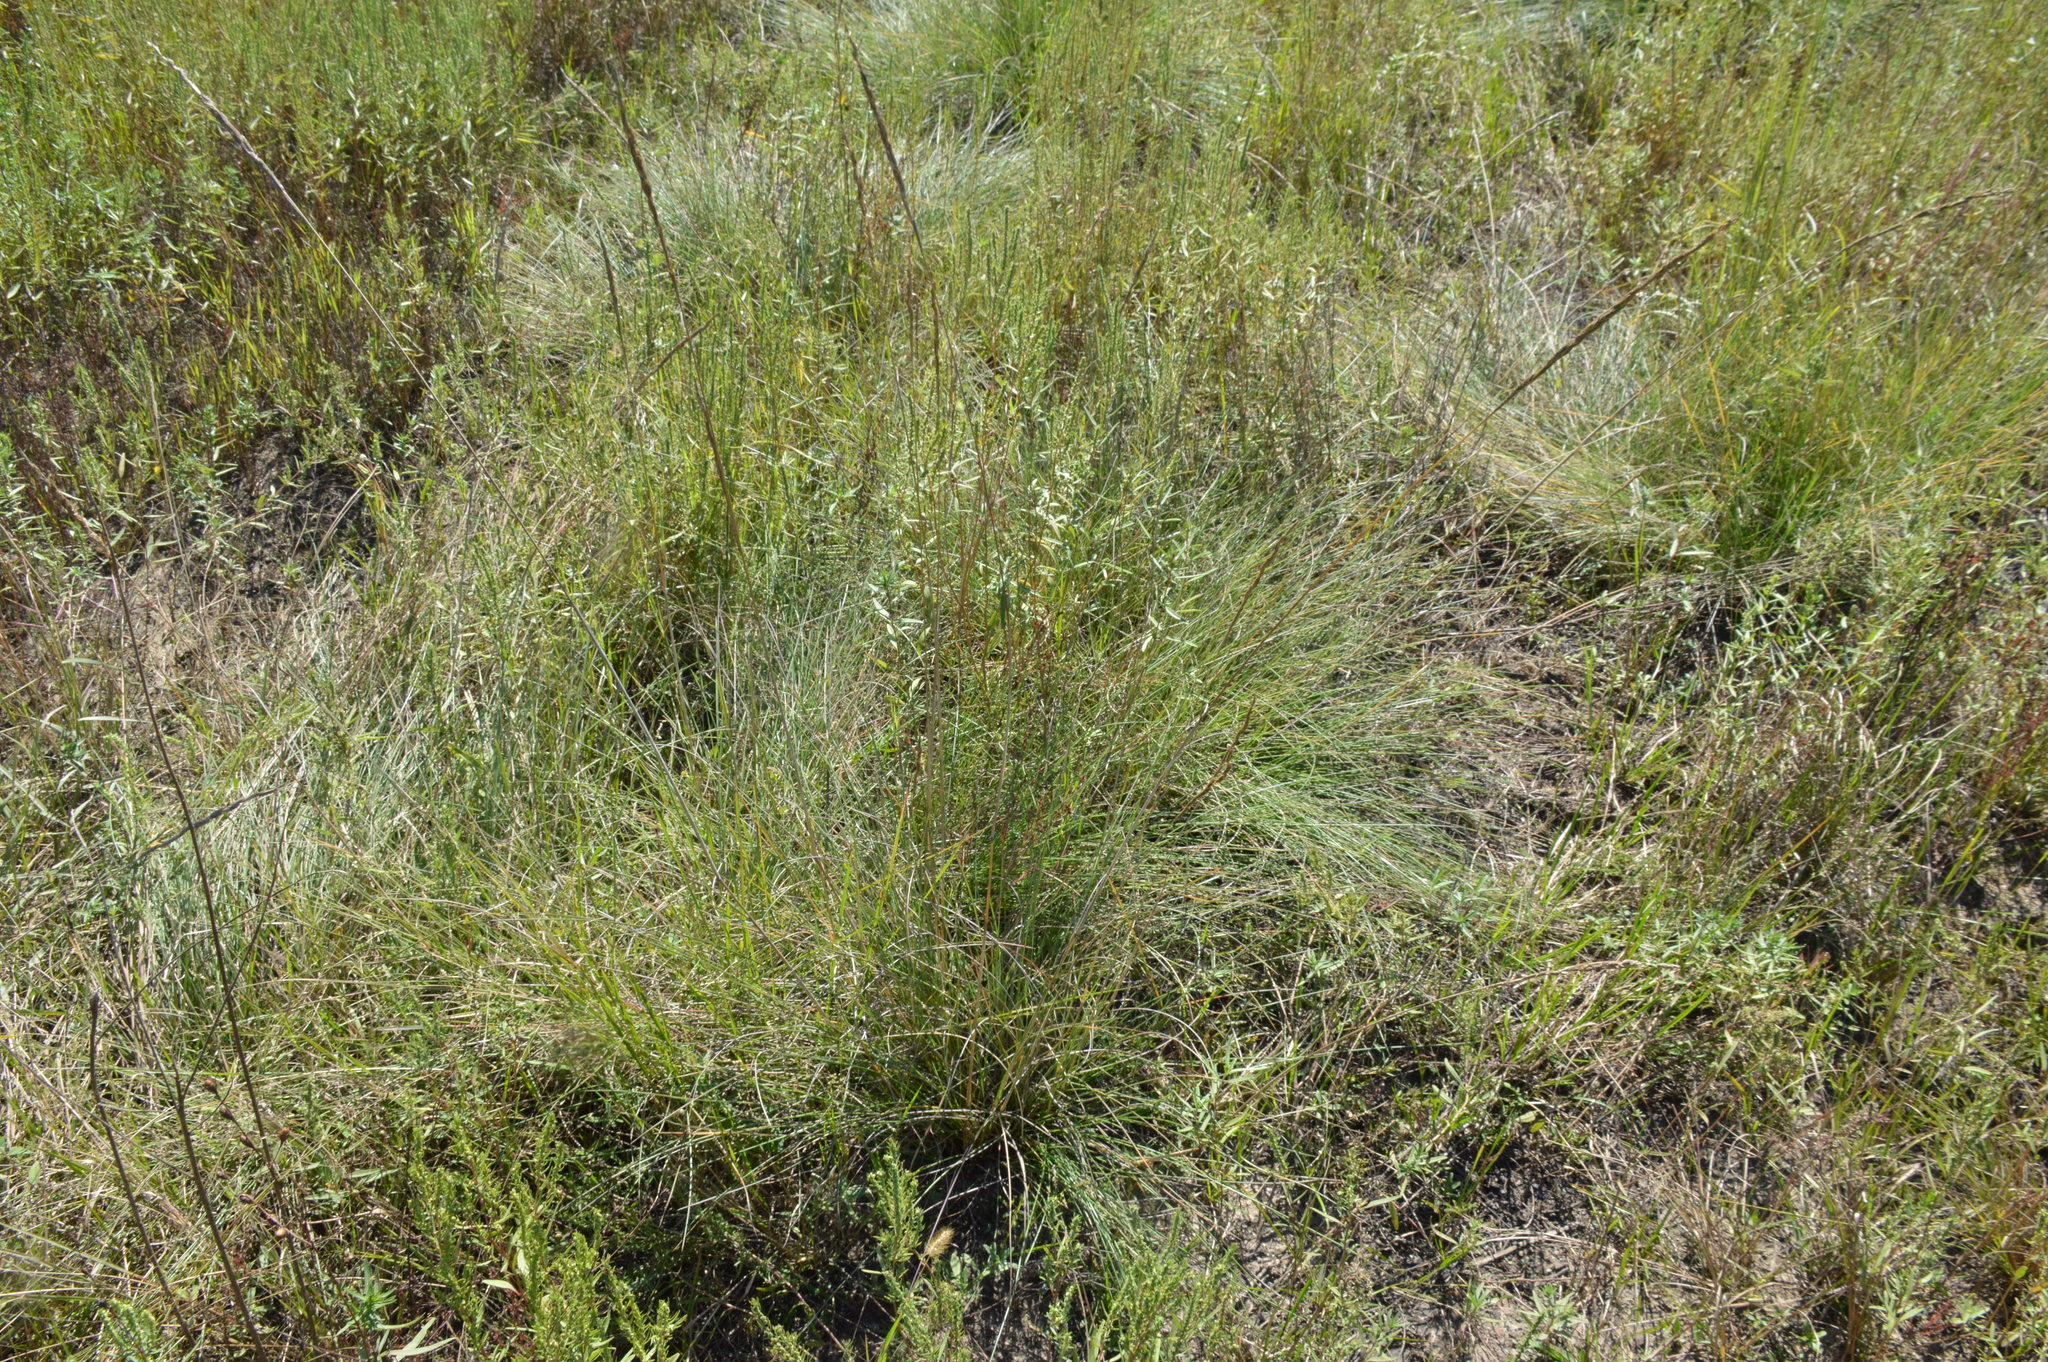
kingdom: Plantae
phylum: Tracheophyta
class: Liliopsida
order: Poales
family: Poaceae
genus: Sporobolus
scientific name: Sporobolus spartinae
